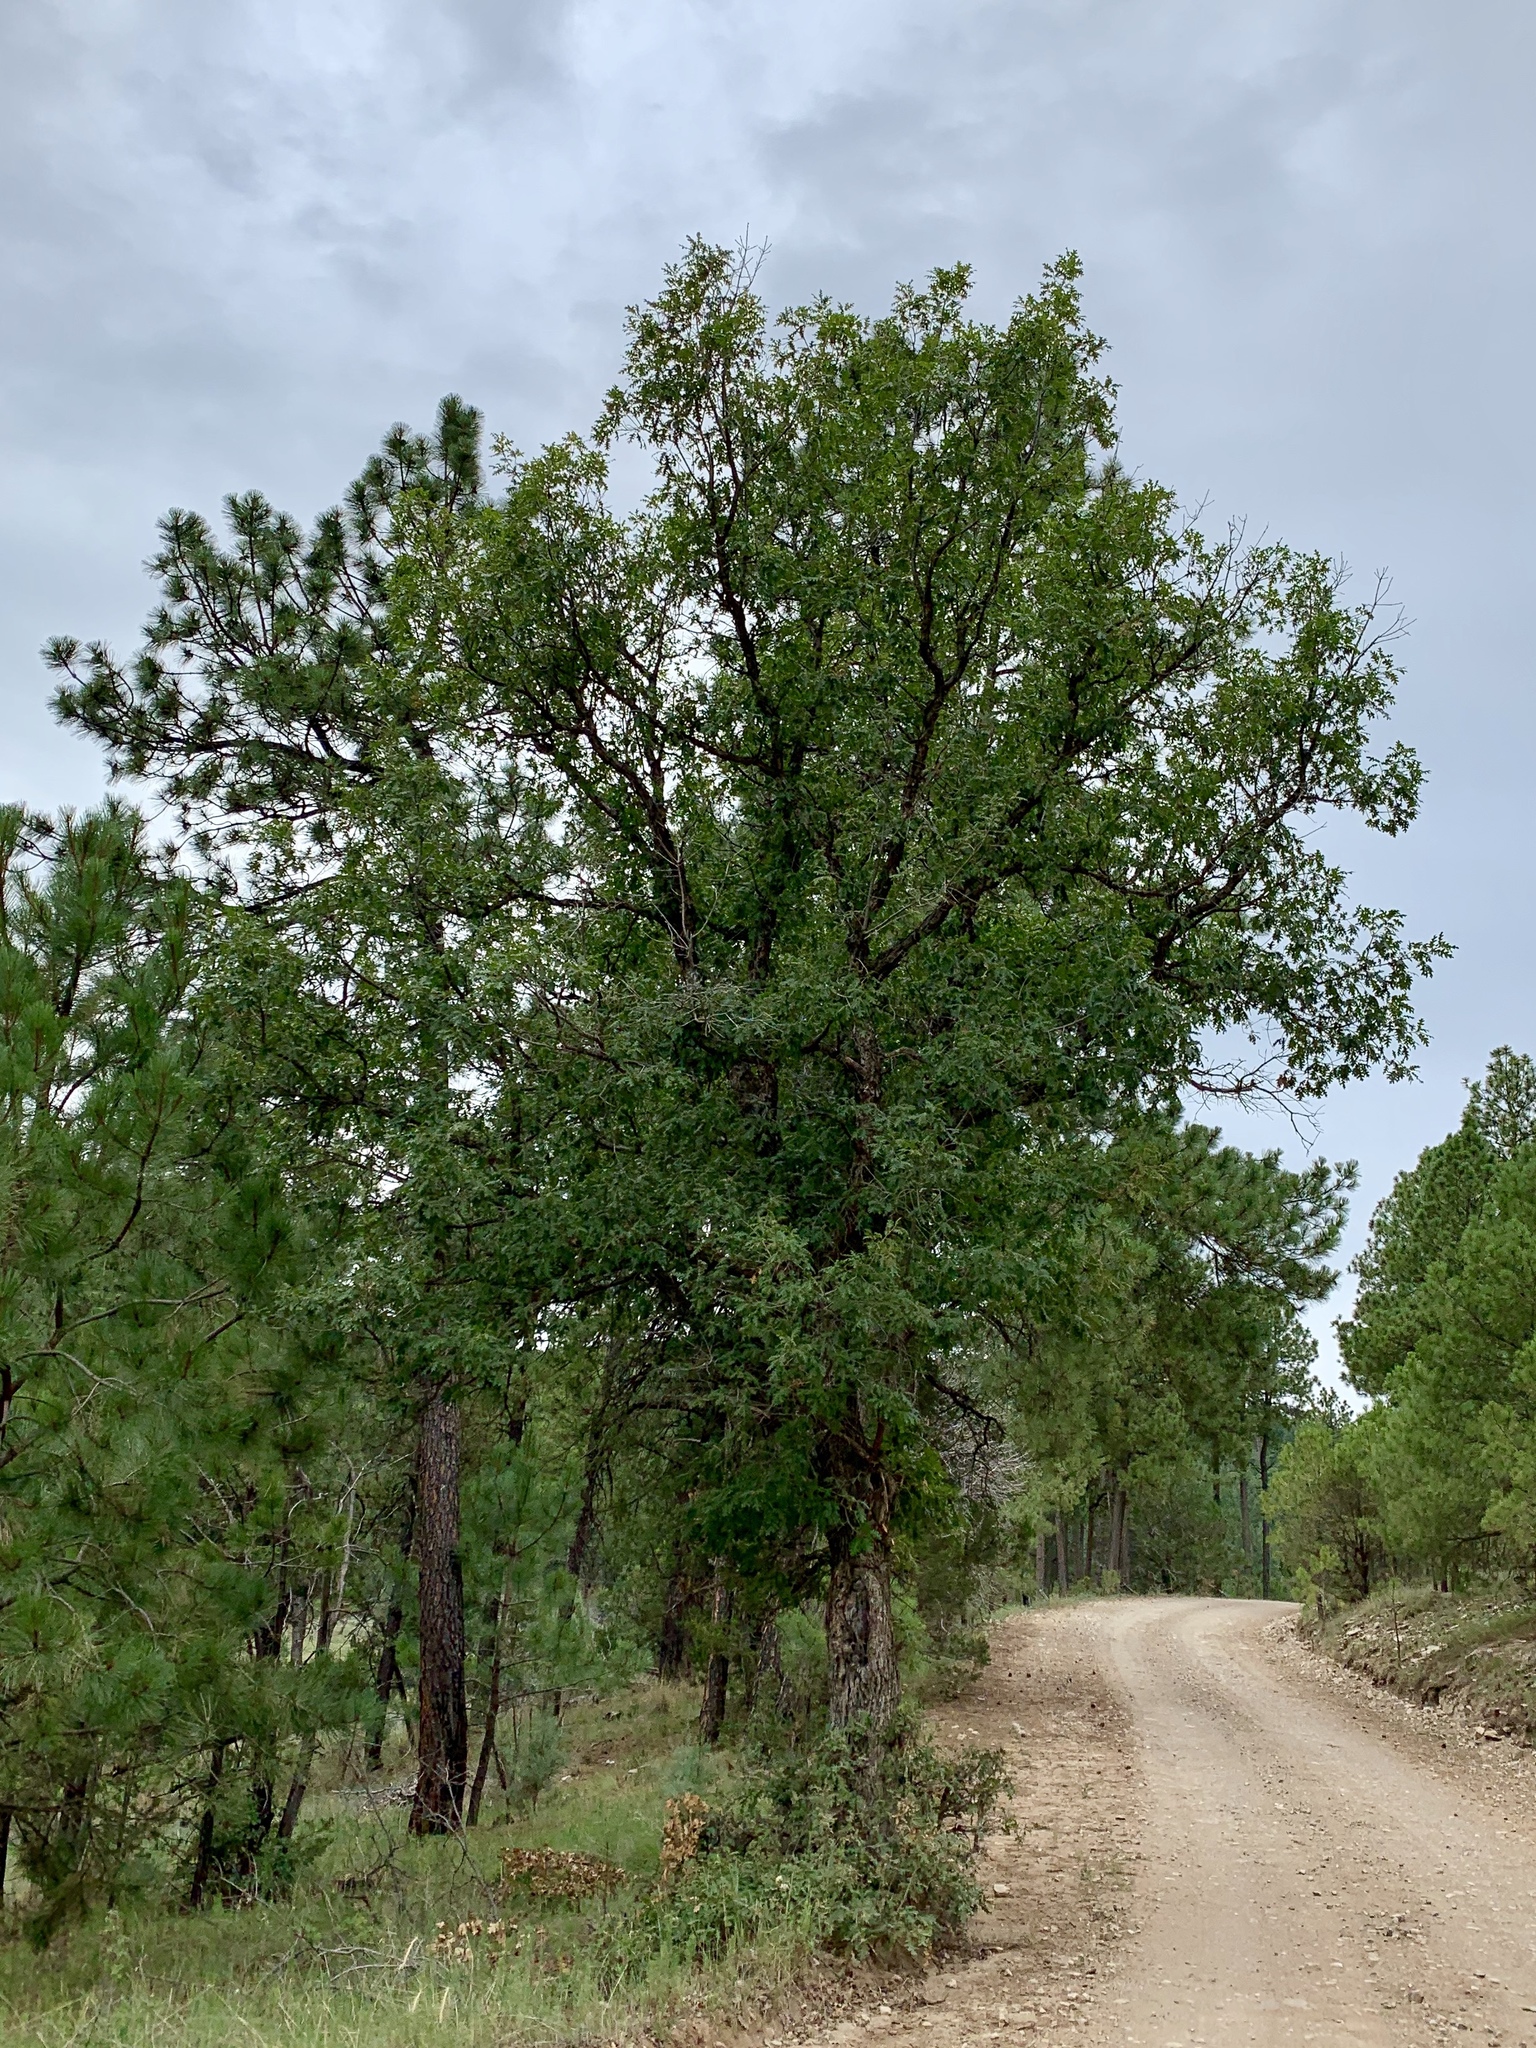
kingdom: Plantae
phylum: Tracheophyta
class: Magnoliopsida
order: Fagales
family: Fagaceae
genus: Quercus
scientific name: Quercus gambelii
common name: Gambel oak
